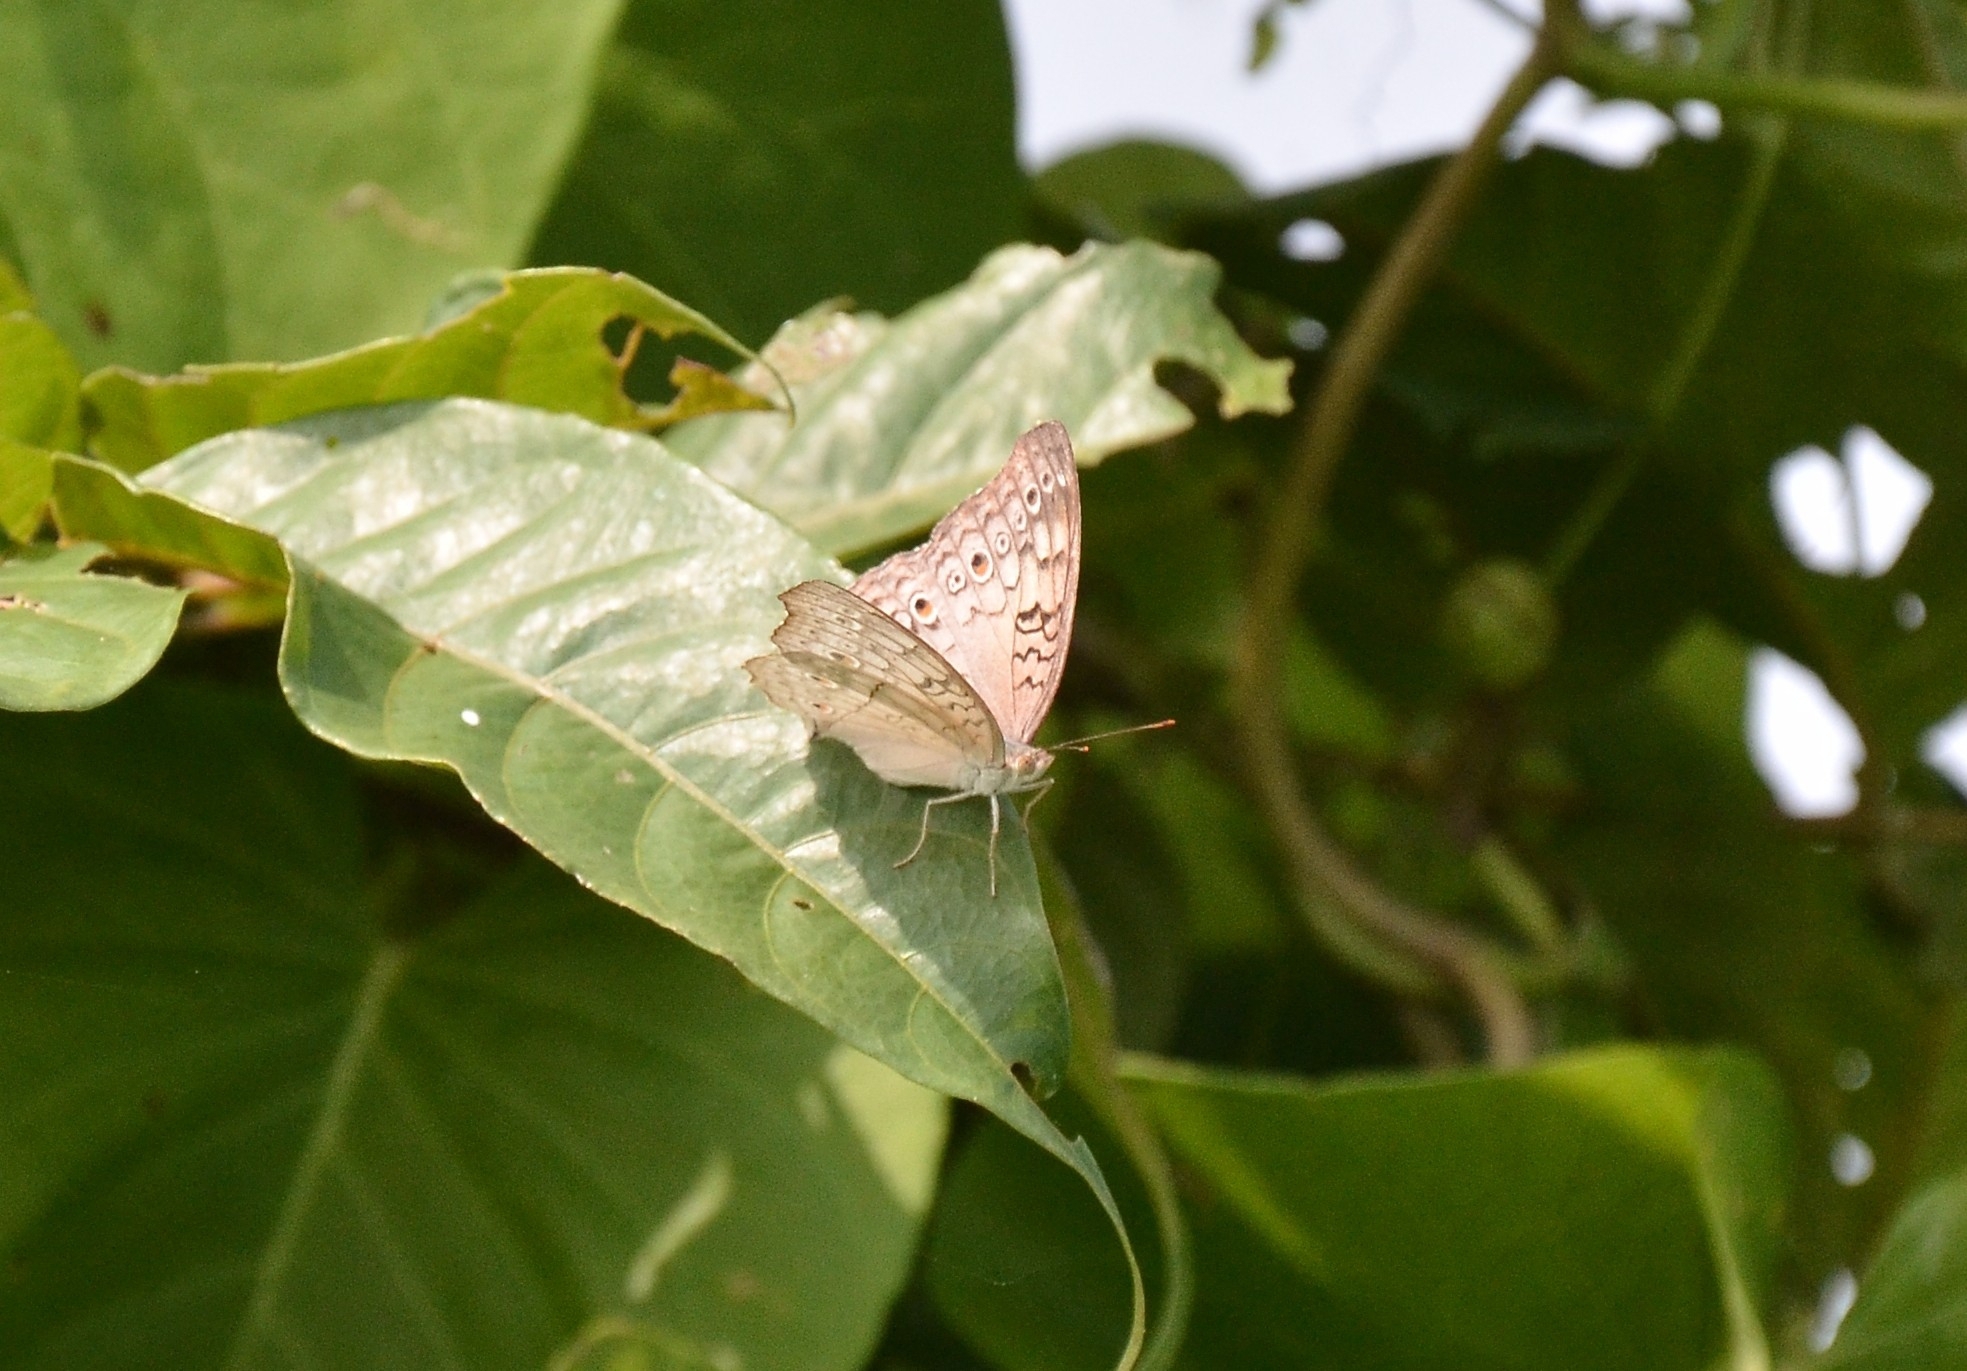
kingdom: Animalia
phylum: Arthropoda
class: Insecta
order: Lepidoptera
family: Nymphalidae
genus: Junonia
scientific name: Junonia atlites
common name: Grey pansy
